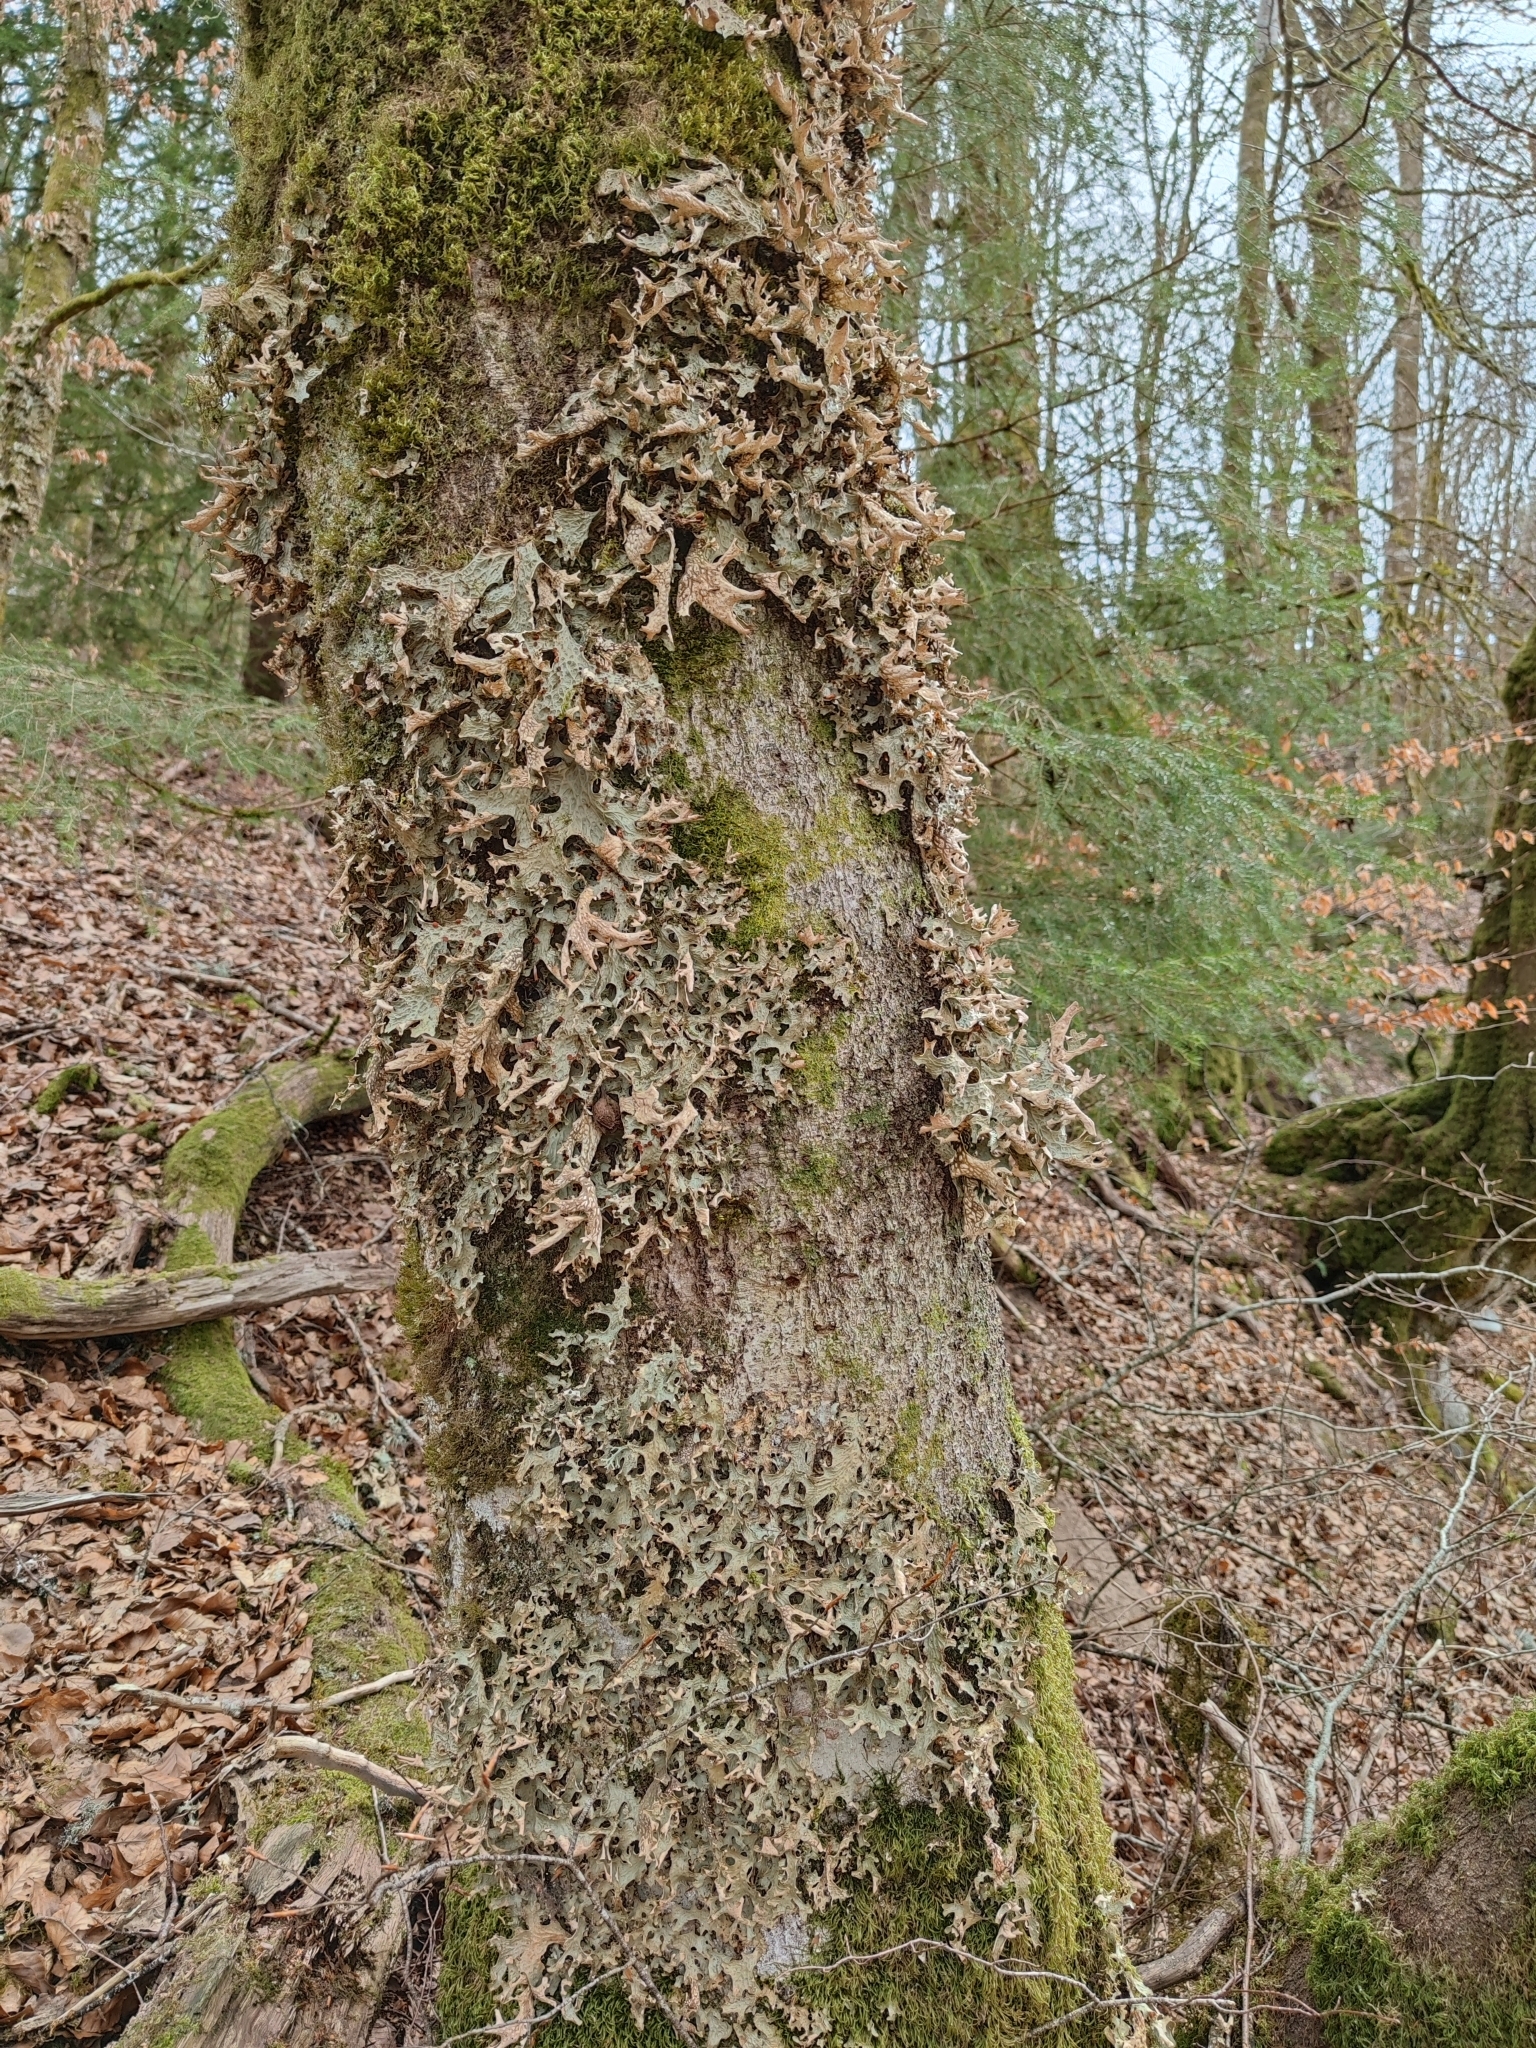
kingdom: Fungi
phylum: Ascomycota
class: Lecanoromycetes
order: Peltigerales
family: Lobariaceae
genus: Lobaria
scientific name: Lobaria pulmonaria
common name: Lungwort
